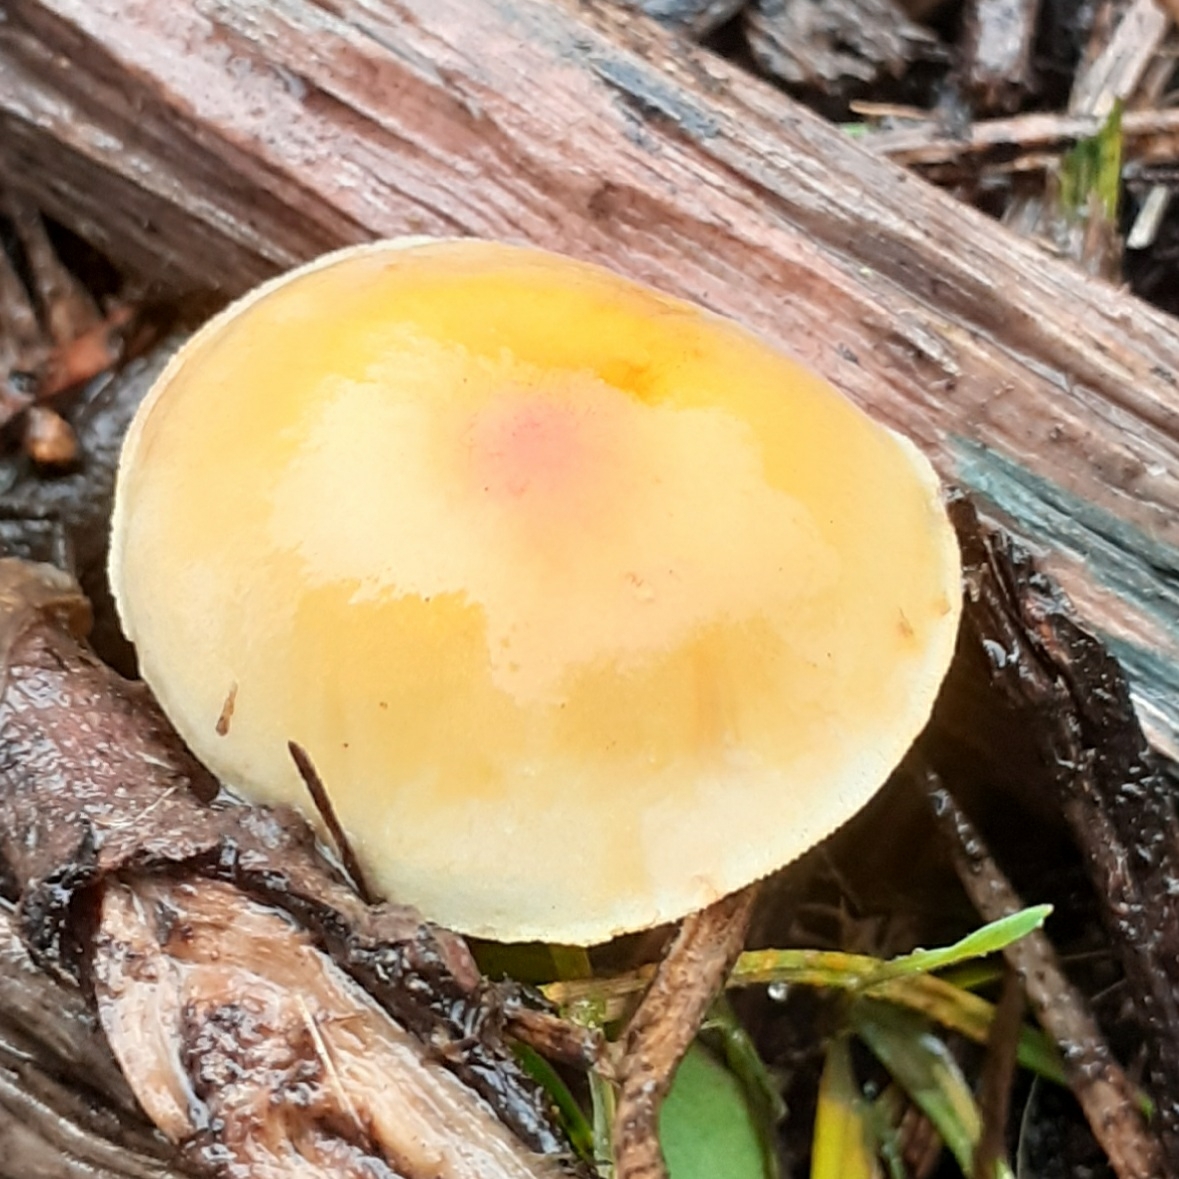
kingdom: Fungi
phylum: Basidiomycota
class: Agaricomycetes
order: Agaricales
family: Strophariaceae
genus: Hypholoma
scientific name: Hypholoma fasciculare
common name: Sulphur tuft
